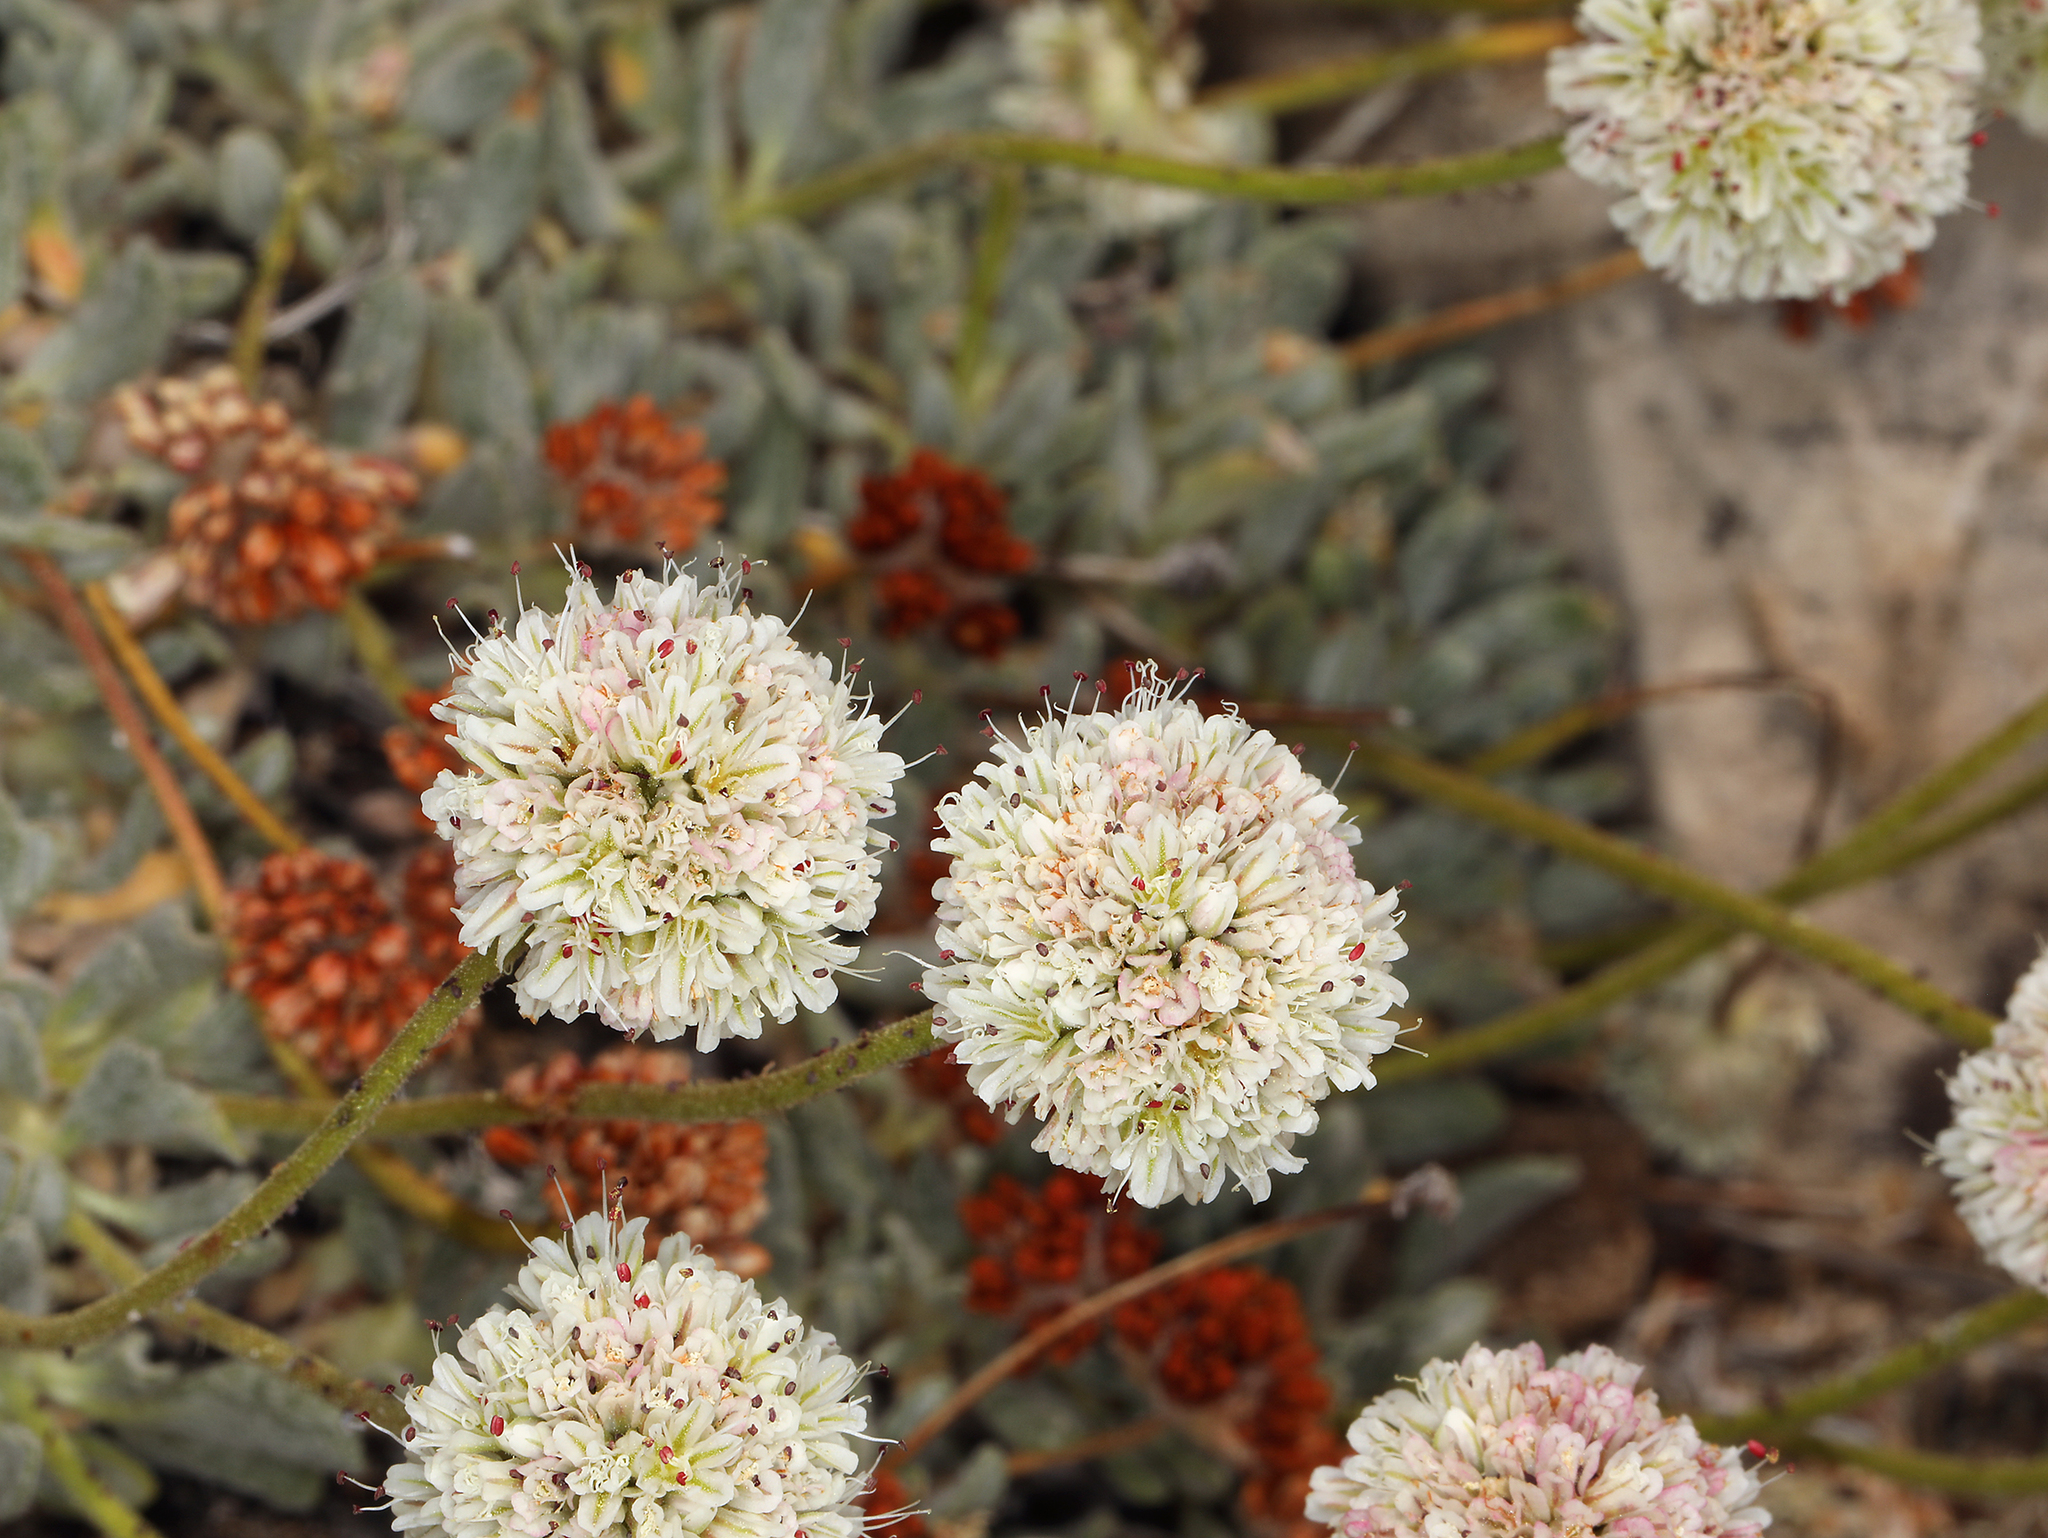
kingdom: Plantae
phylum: Tracheophyta
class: Magnoliopsida
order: Caryophyllales
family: Polygonaceae
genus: Eriogonum
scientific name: Eriogonum gracilipes
